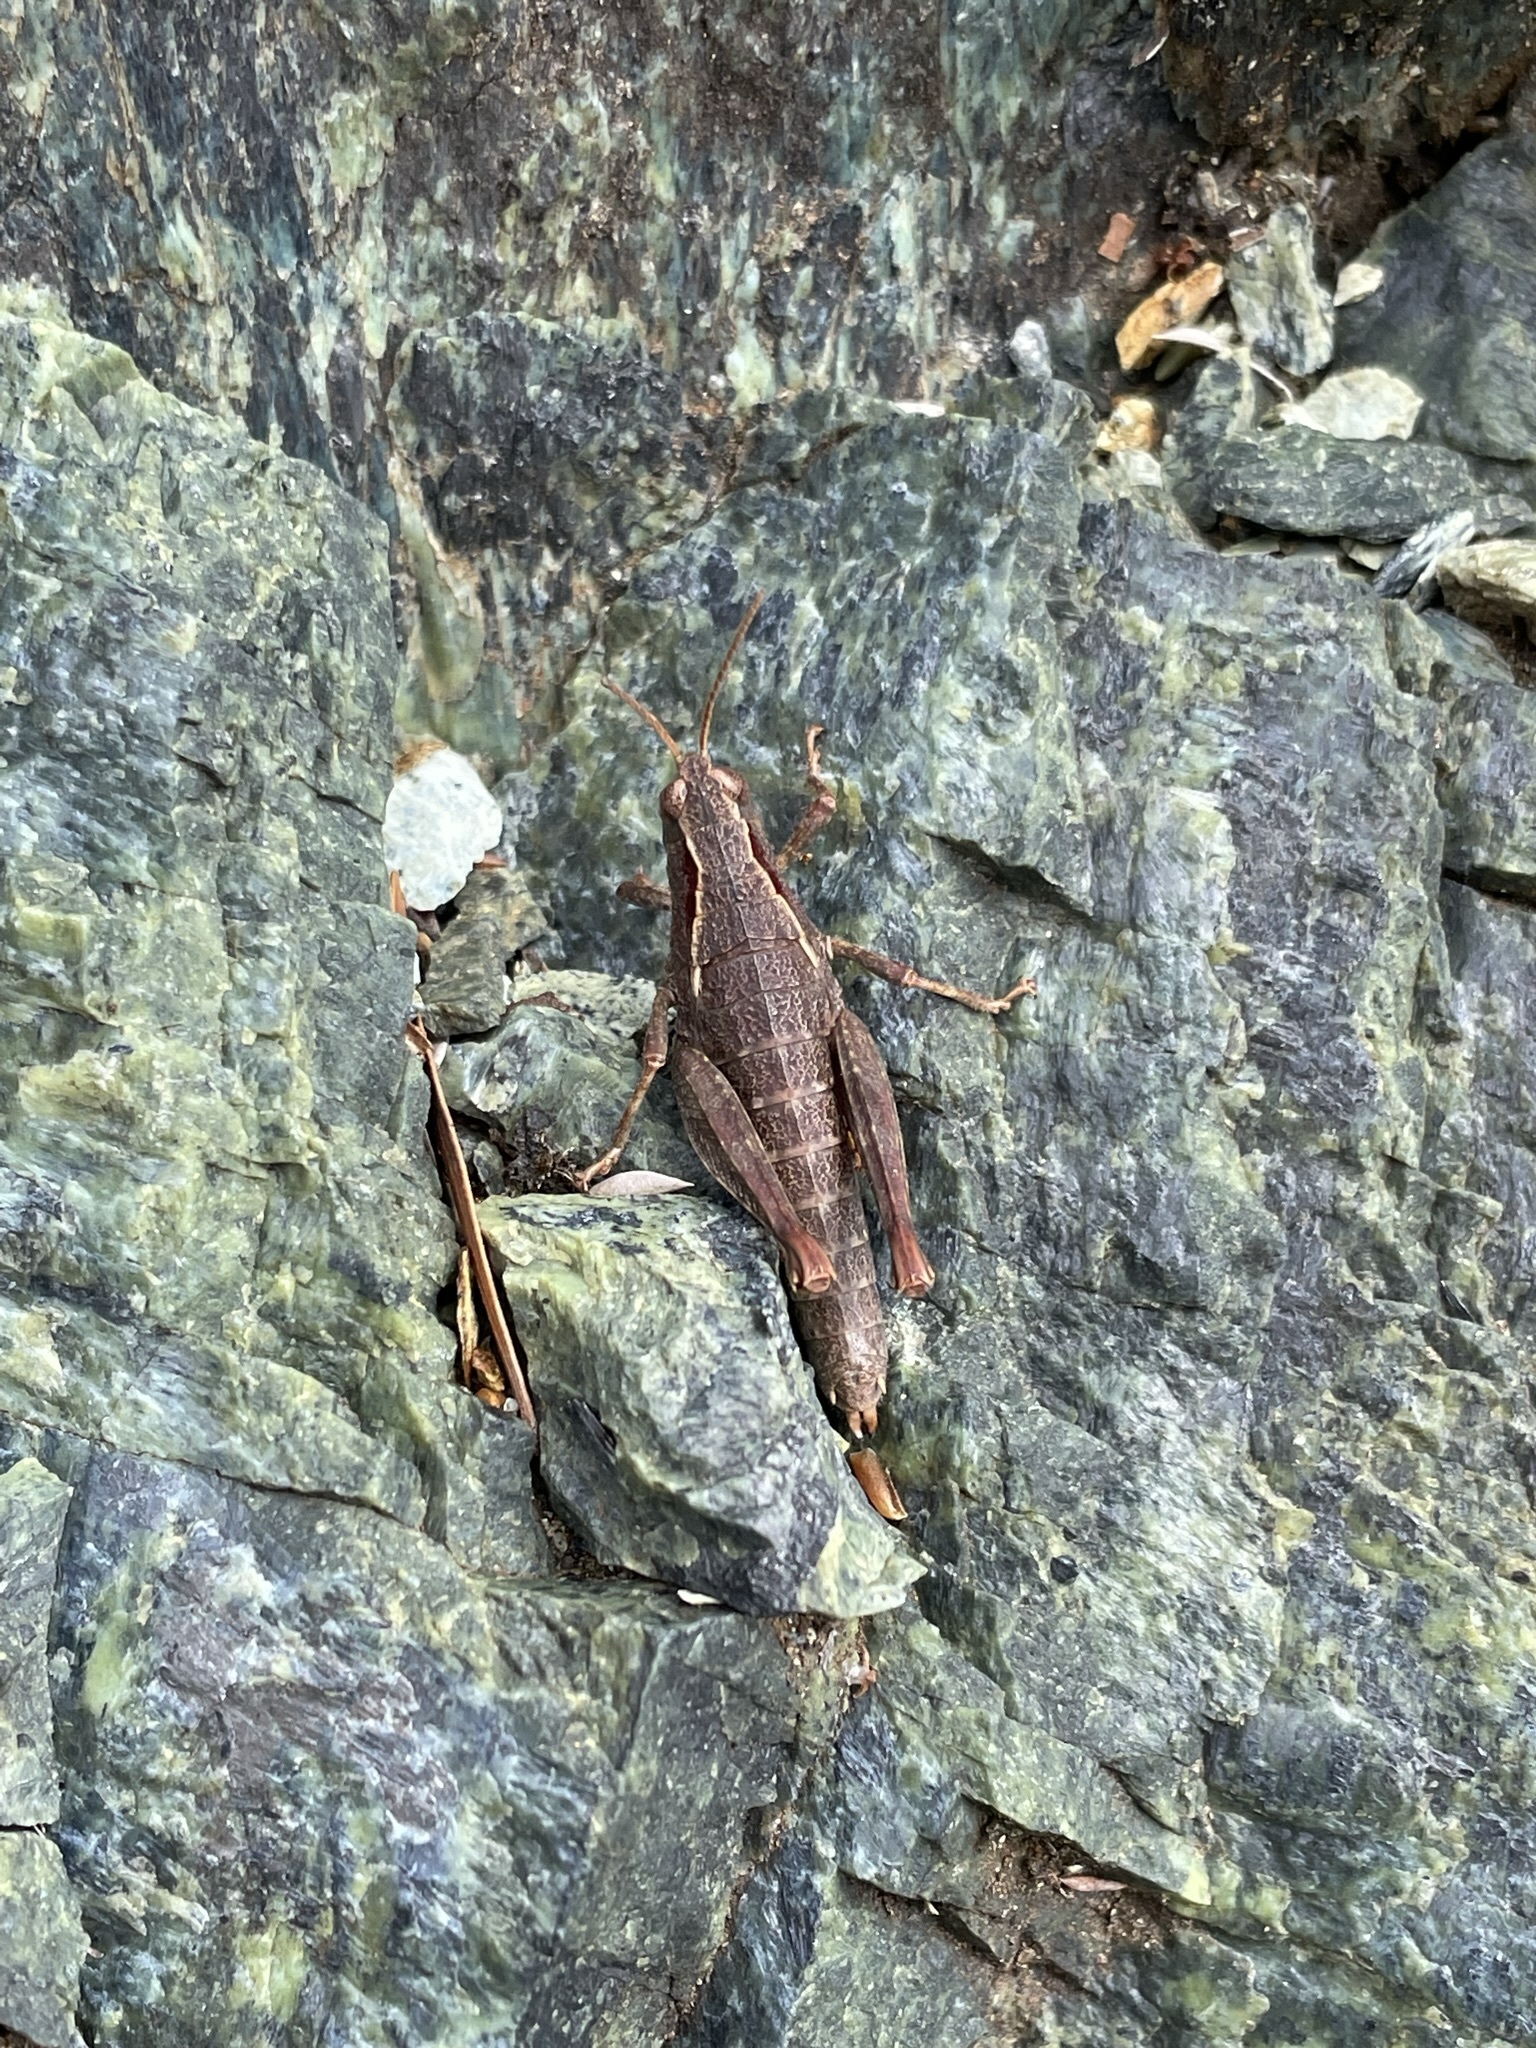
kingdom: Animalia
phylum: Arthropoda
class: Insecta
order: Orthoptera
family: Acrididae
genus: Tasmaniacris
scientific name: Tasmaniacris tasmaniensis
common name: Tasmanian grasshopper
